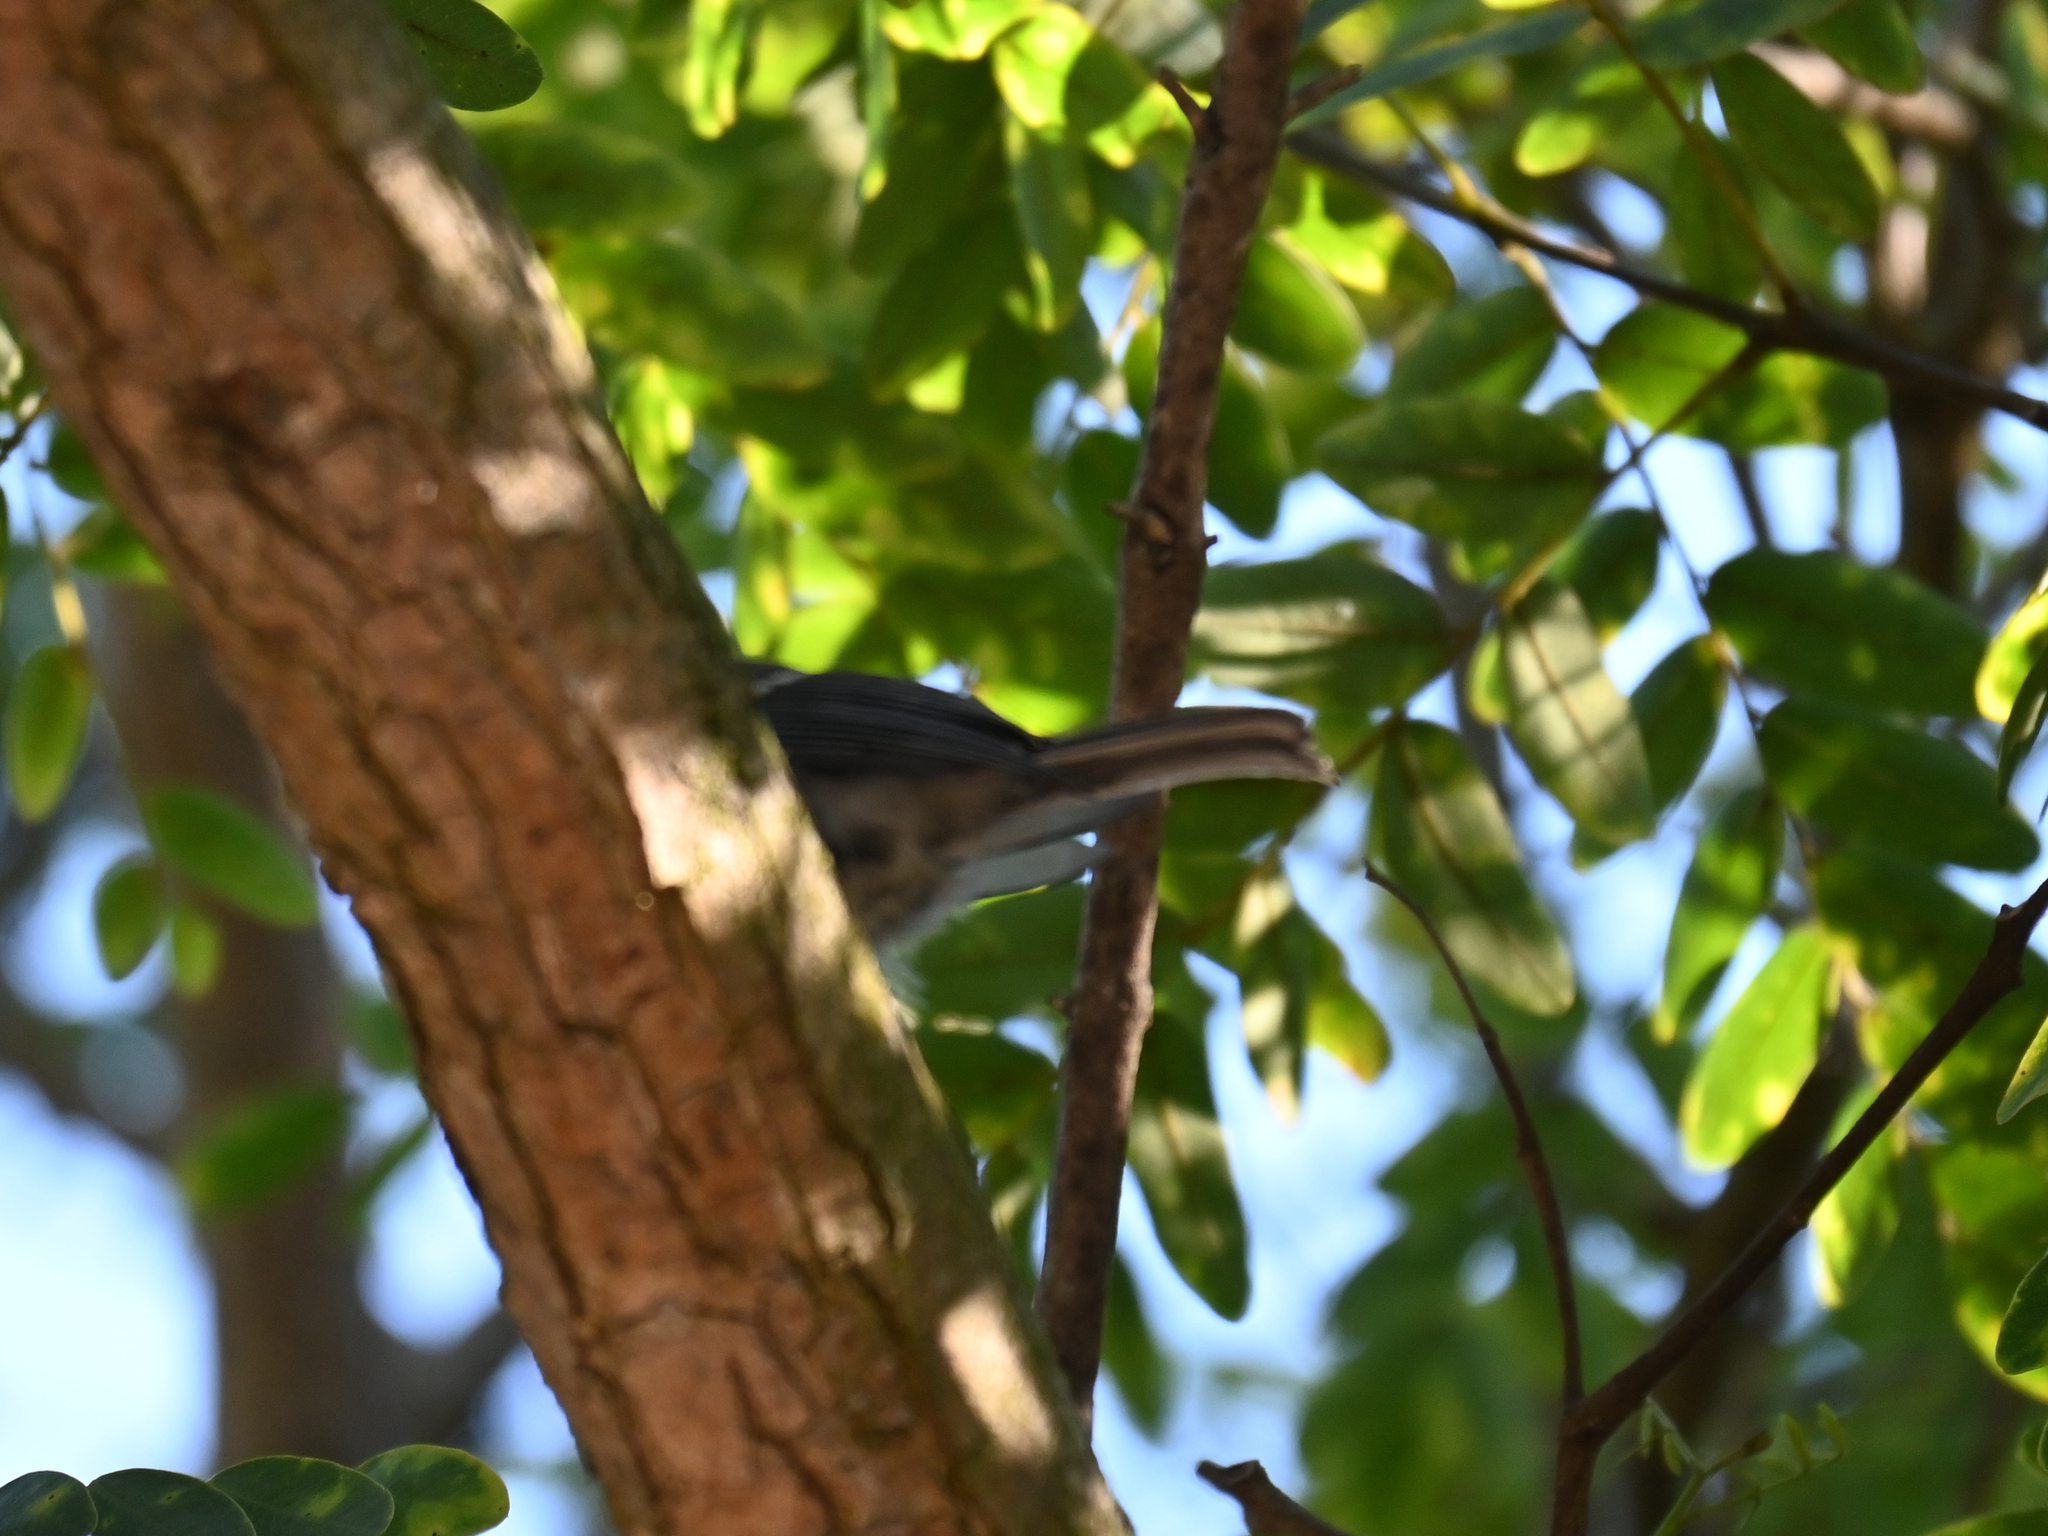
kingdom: Animalia
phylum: Chordata
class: Aves
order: Passeriformes
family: Paridae
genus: Parus
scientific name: Parus major
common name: Great tit
